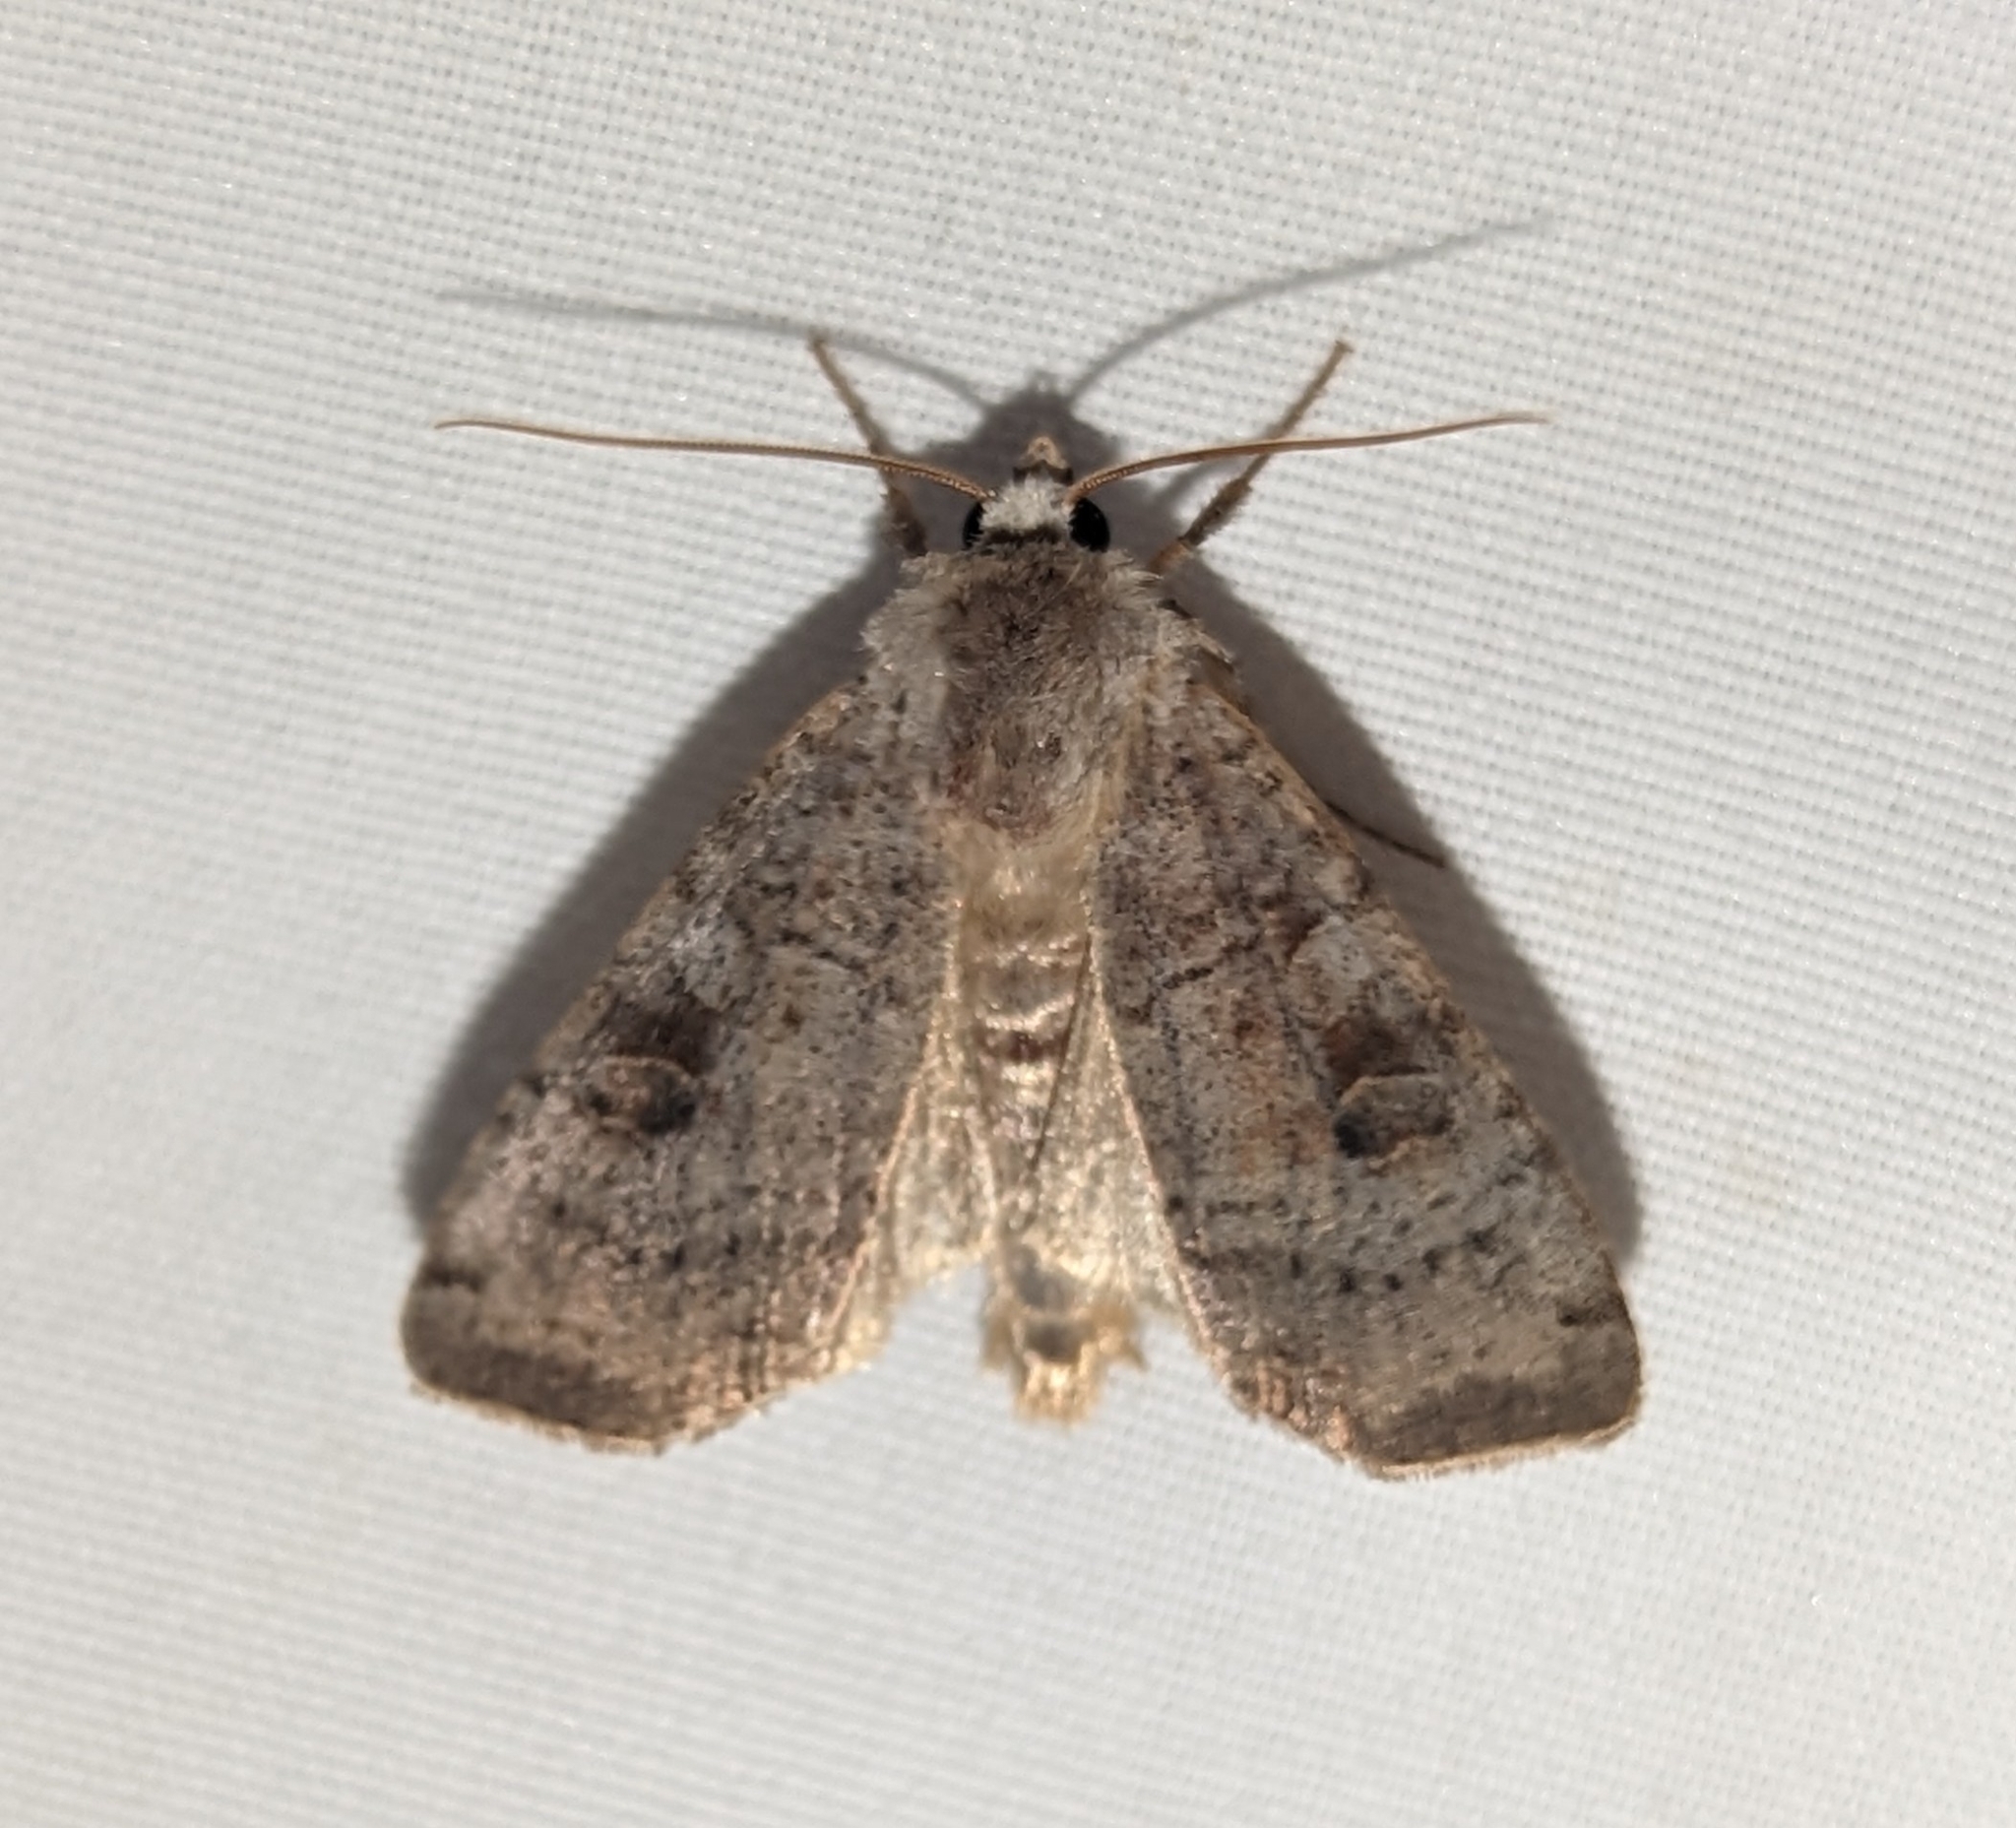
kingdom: Animalia
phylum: Arthropoda
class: Insecta
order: Lepidoptera
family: Noctuidae
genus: Xestia
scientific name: Xestia smithii
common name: Smith's dart
